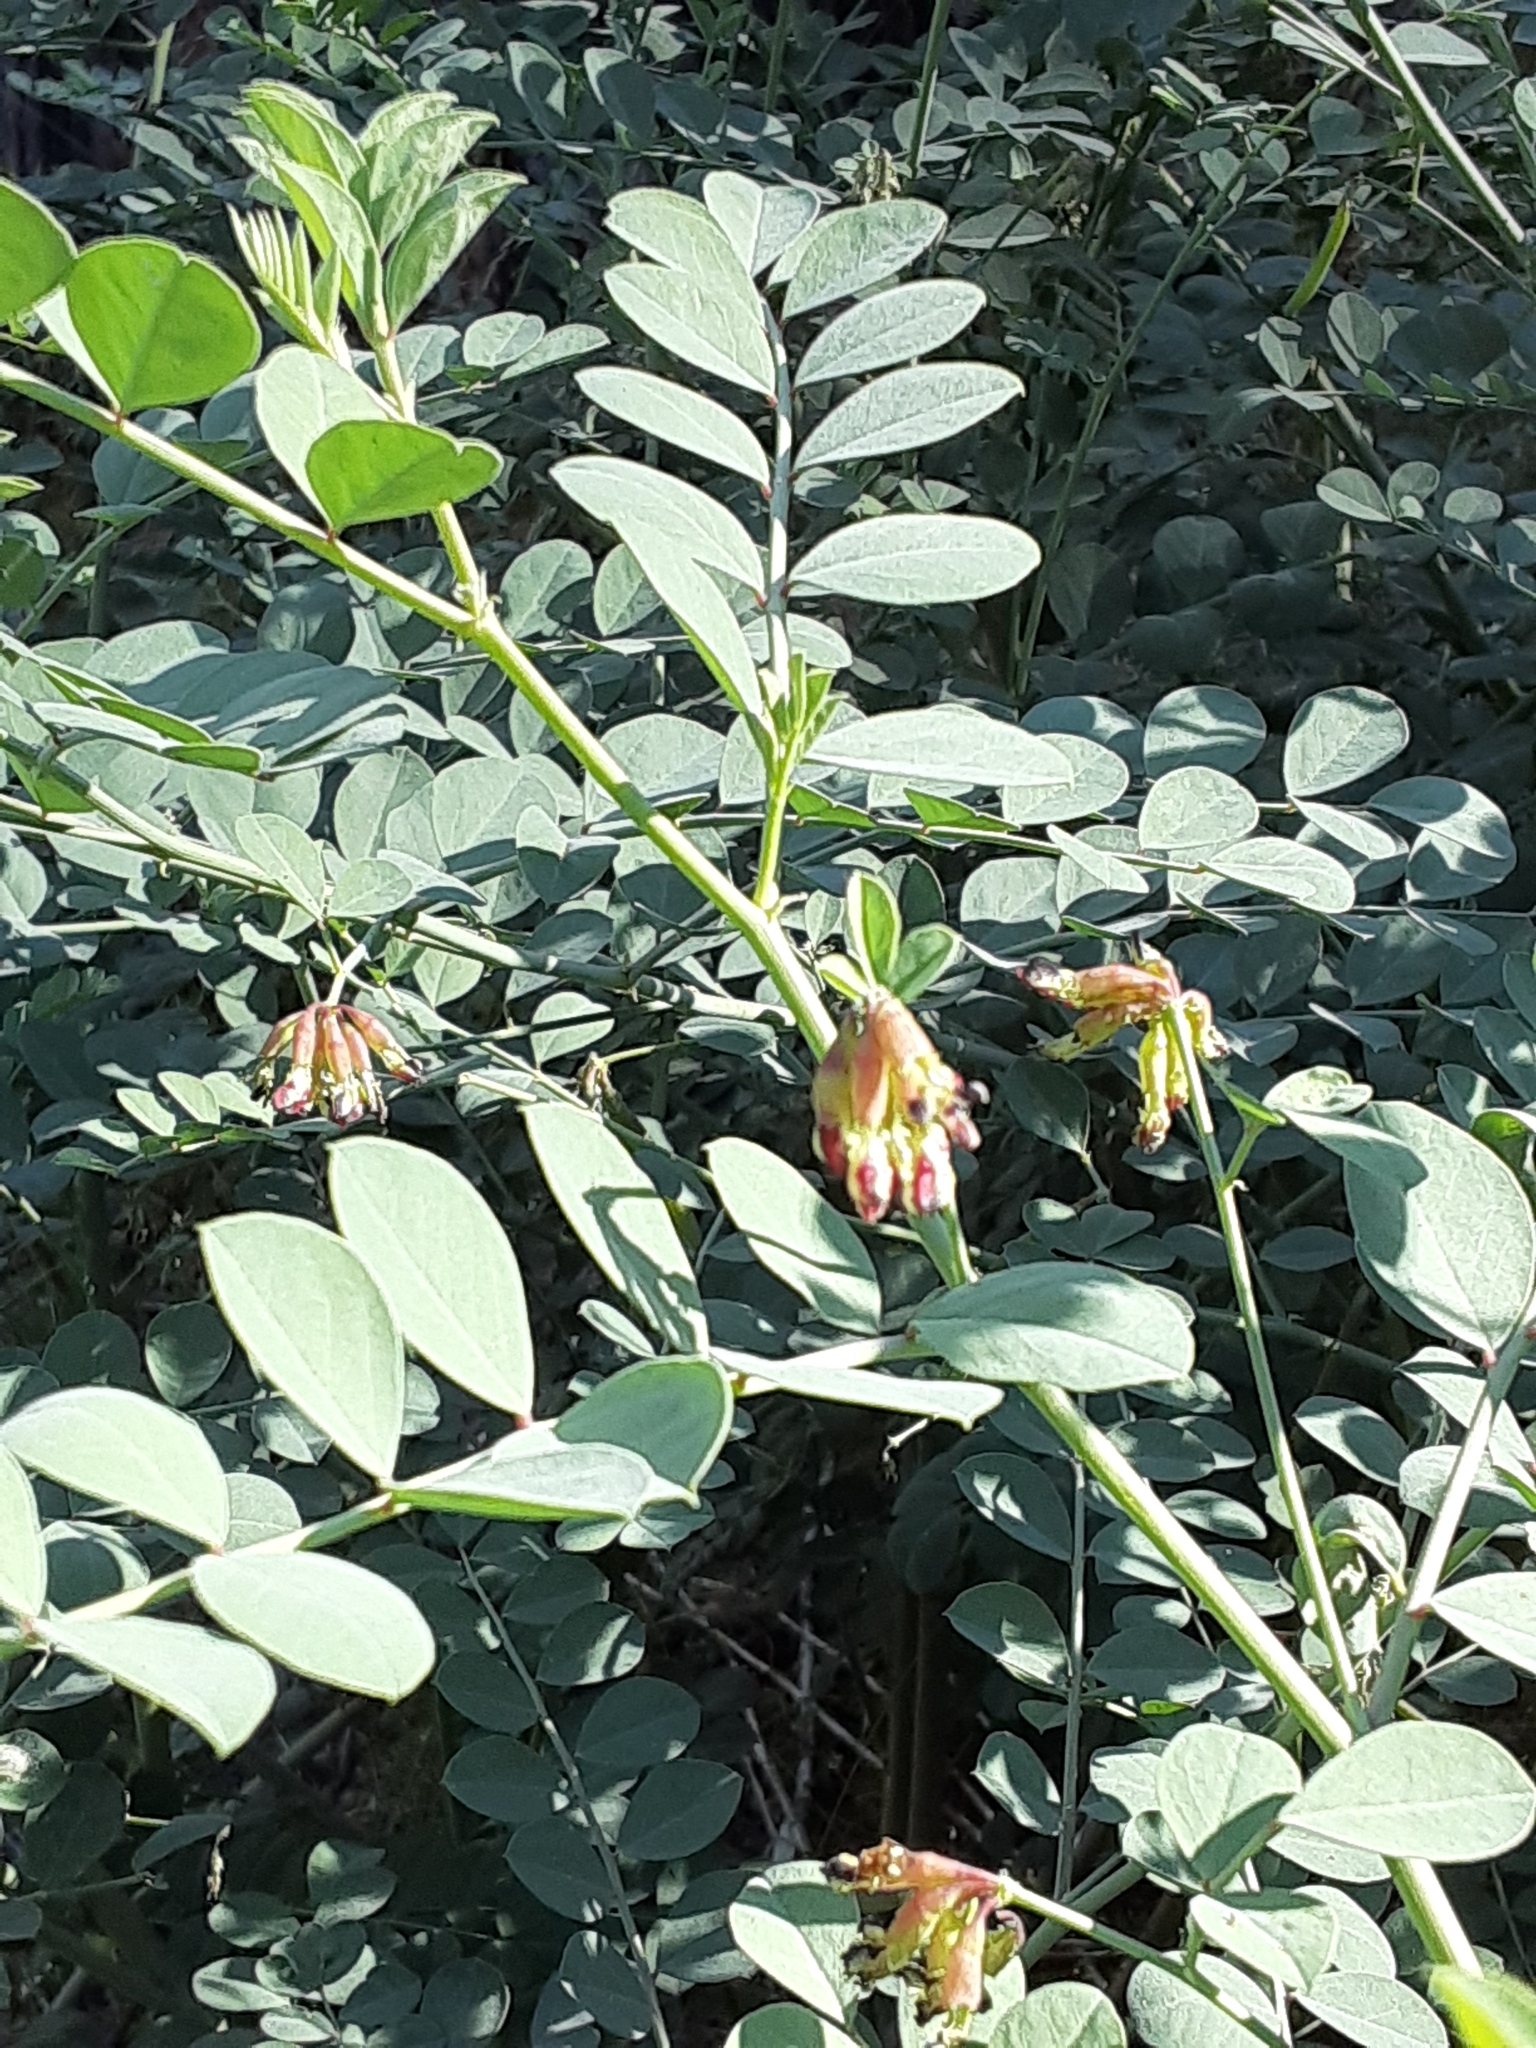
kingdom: Plantae
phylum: Tracheophyta
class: Magnoliopsida
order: Fabales
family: Fabaceae
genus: Hosackia
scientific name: Hosackia crassifolia
